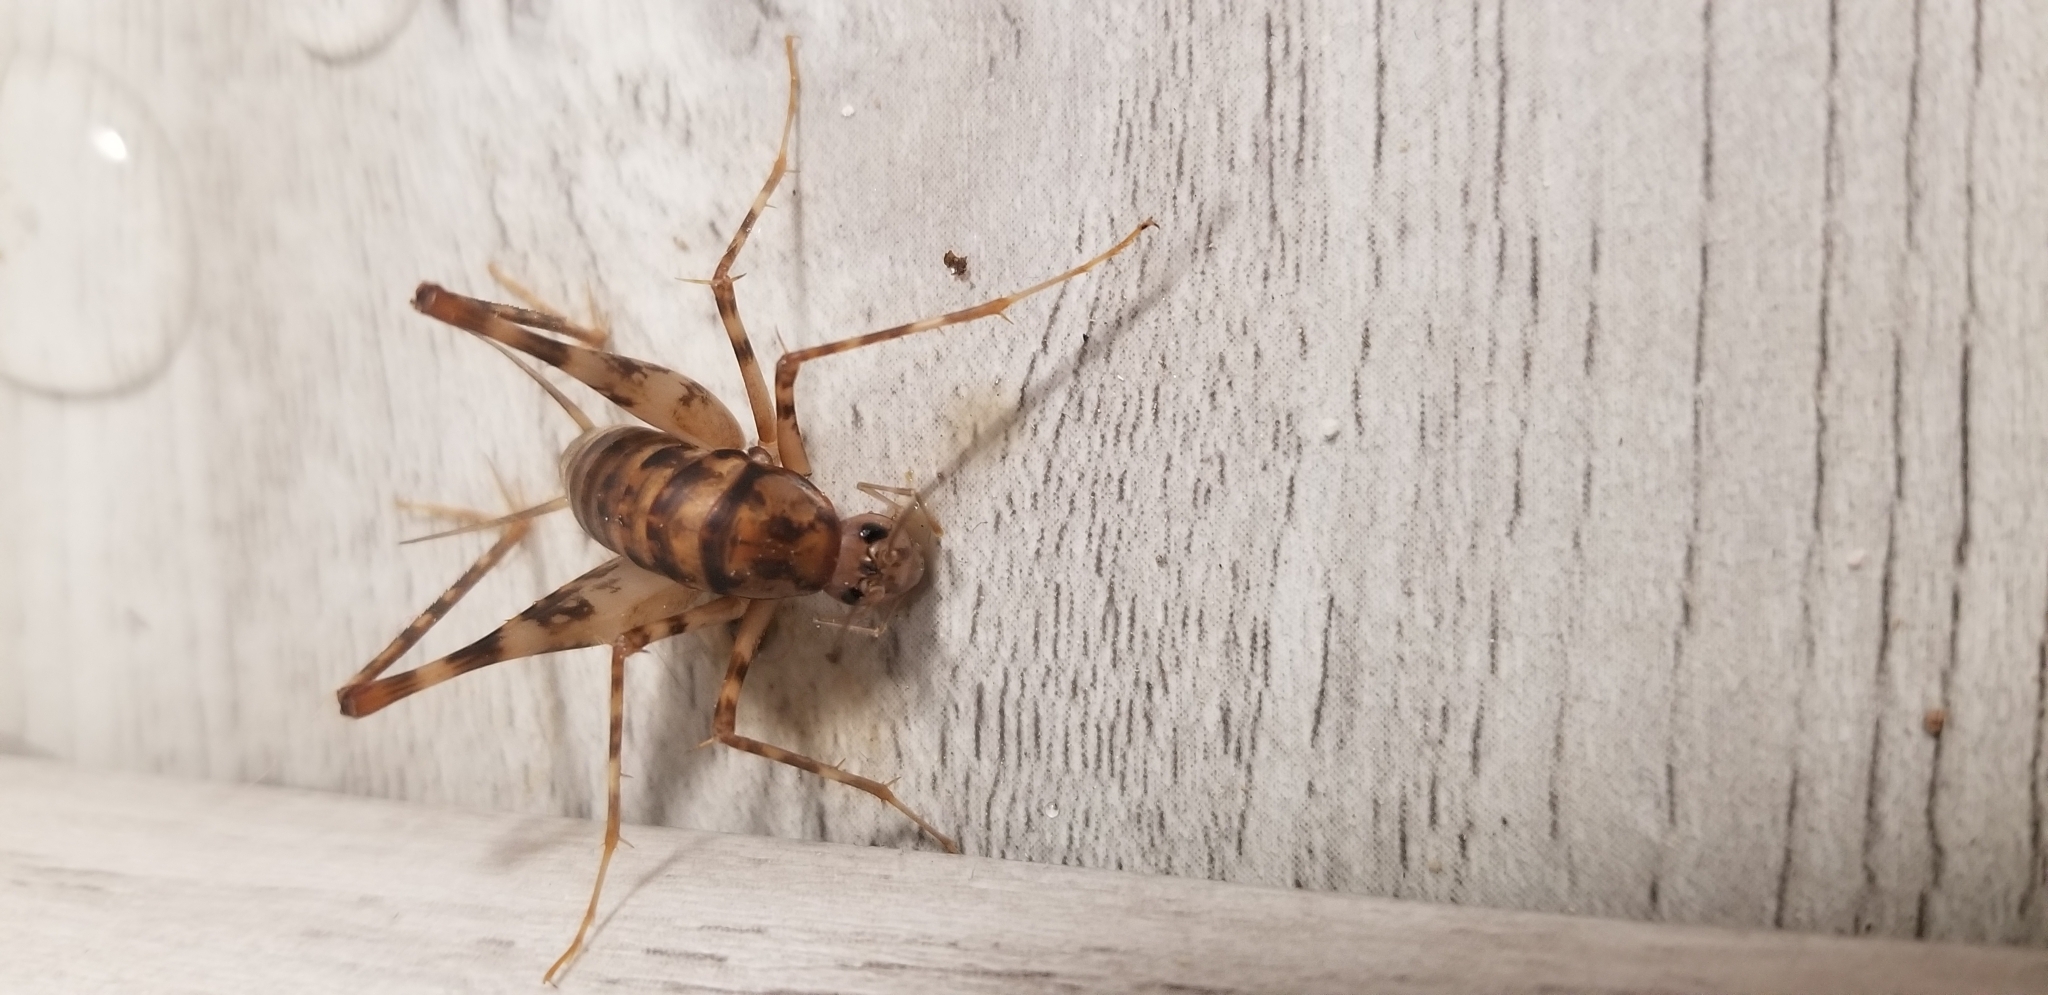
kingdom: Animalia
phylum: Arthropoda
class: Insecta
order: Orthoptera
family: Rhaphidophoridae
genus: Tachycines
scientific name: Tachycines asynamorus
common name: Greenhouse camel cricket
